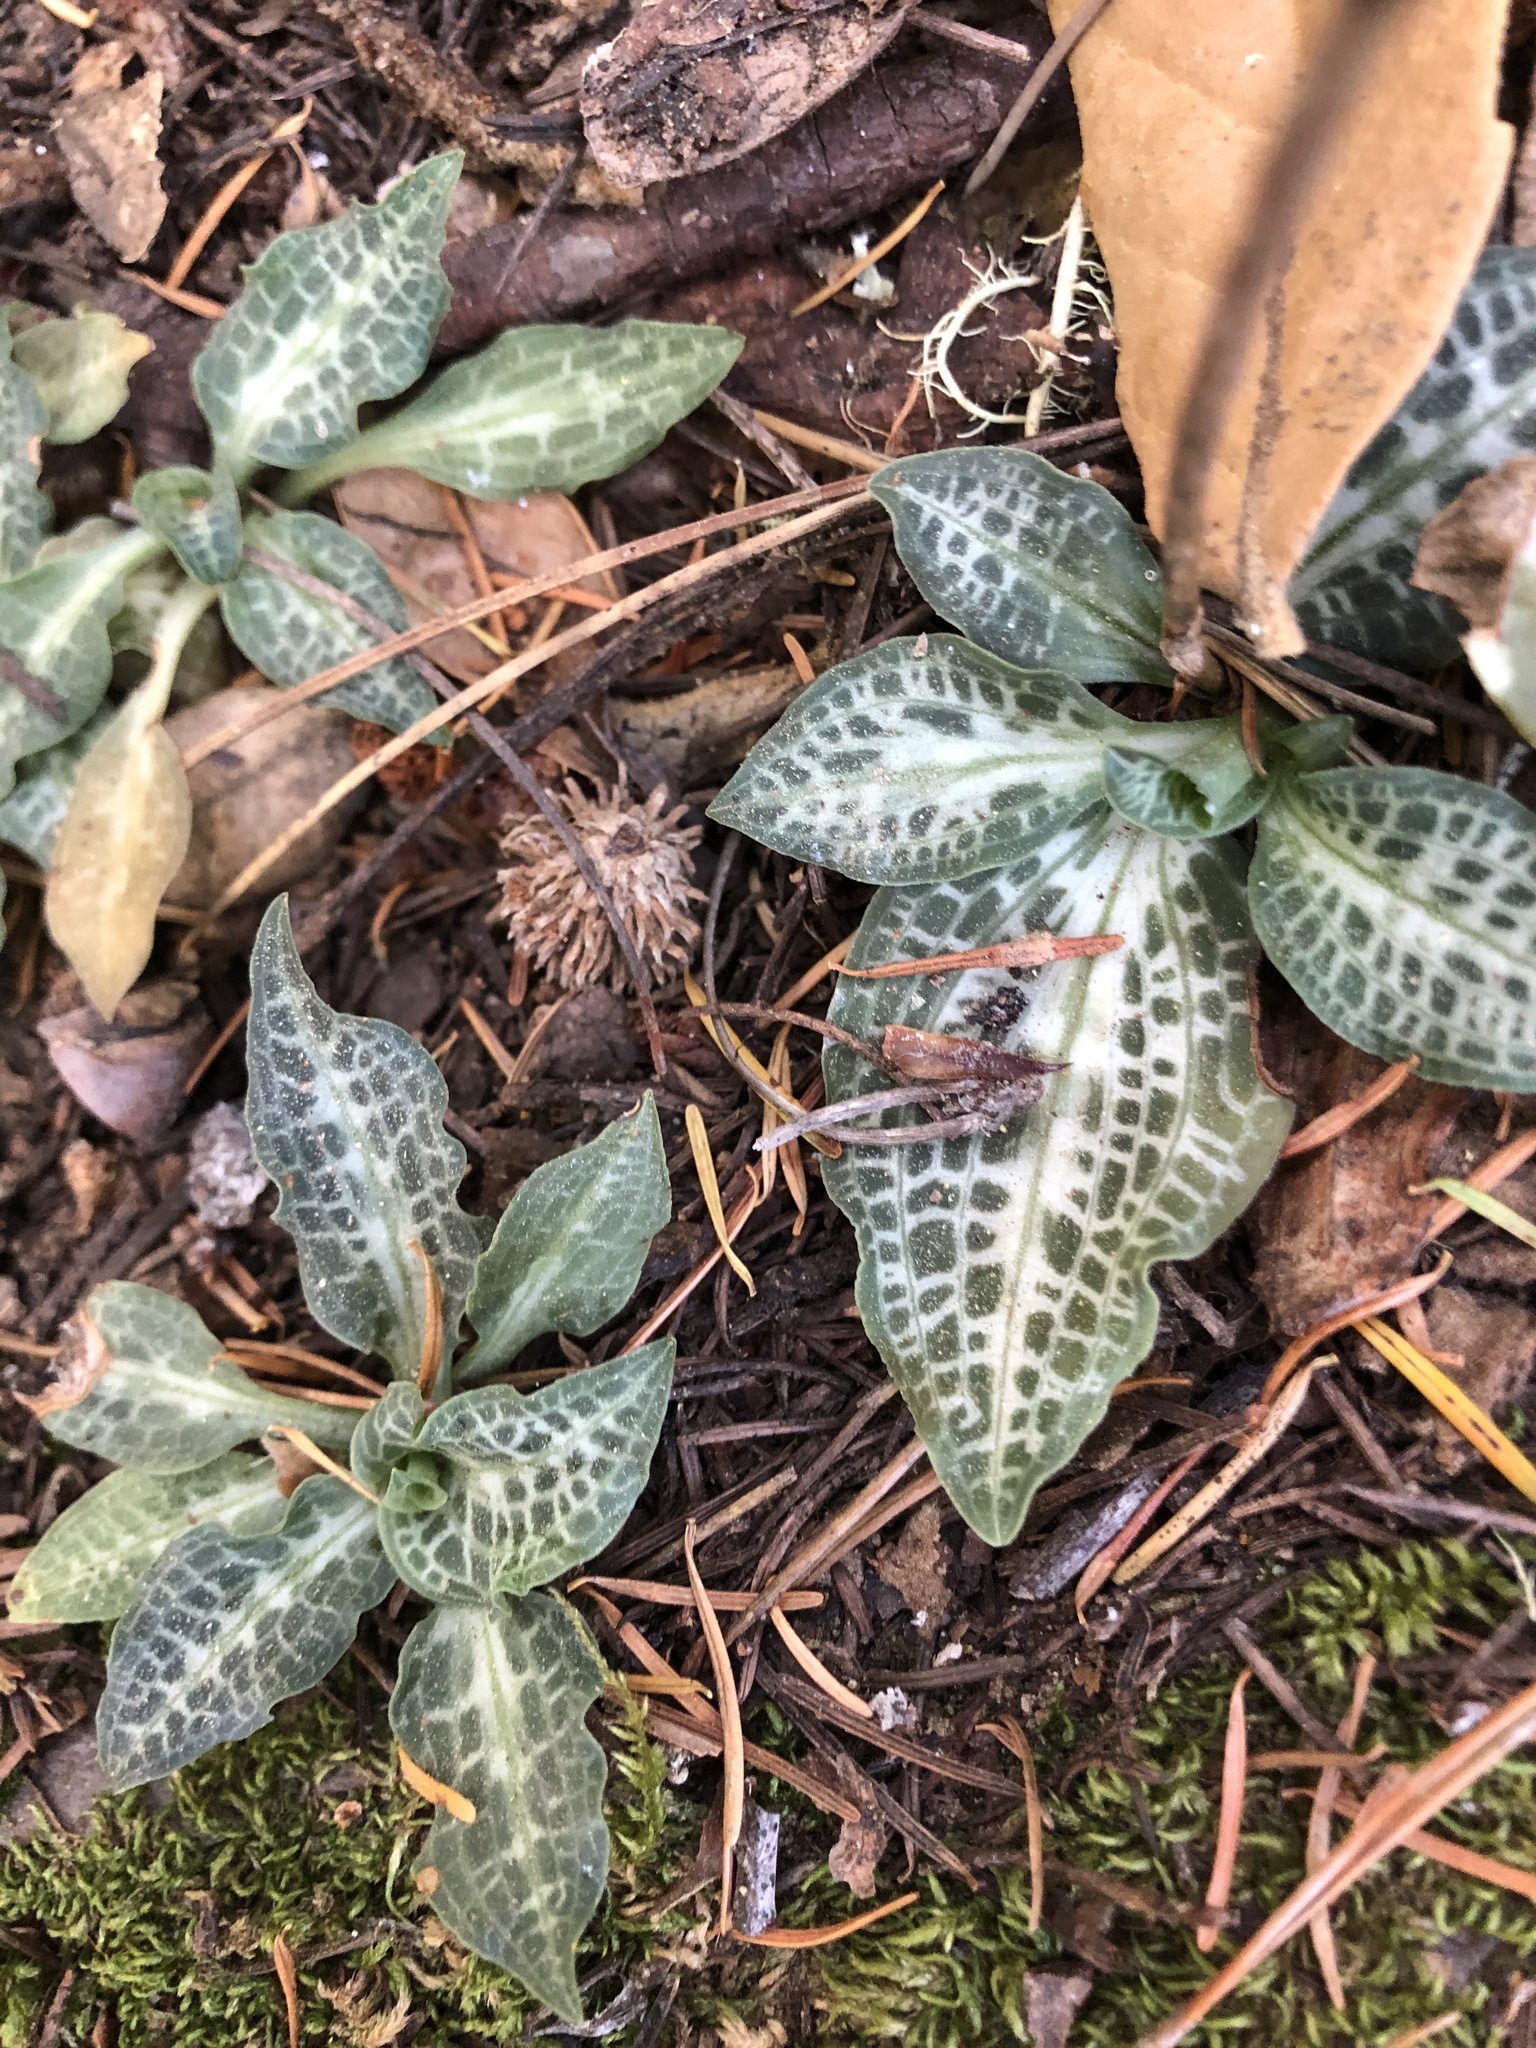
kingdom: Plantae
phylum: Tracheophyta
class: Liliopsida
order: Asparagales
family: Orchidaceae
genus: Goodyera
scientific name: Goodyera oblongifolia
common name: Giant rattlesnake-plantain
